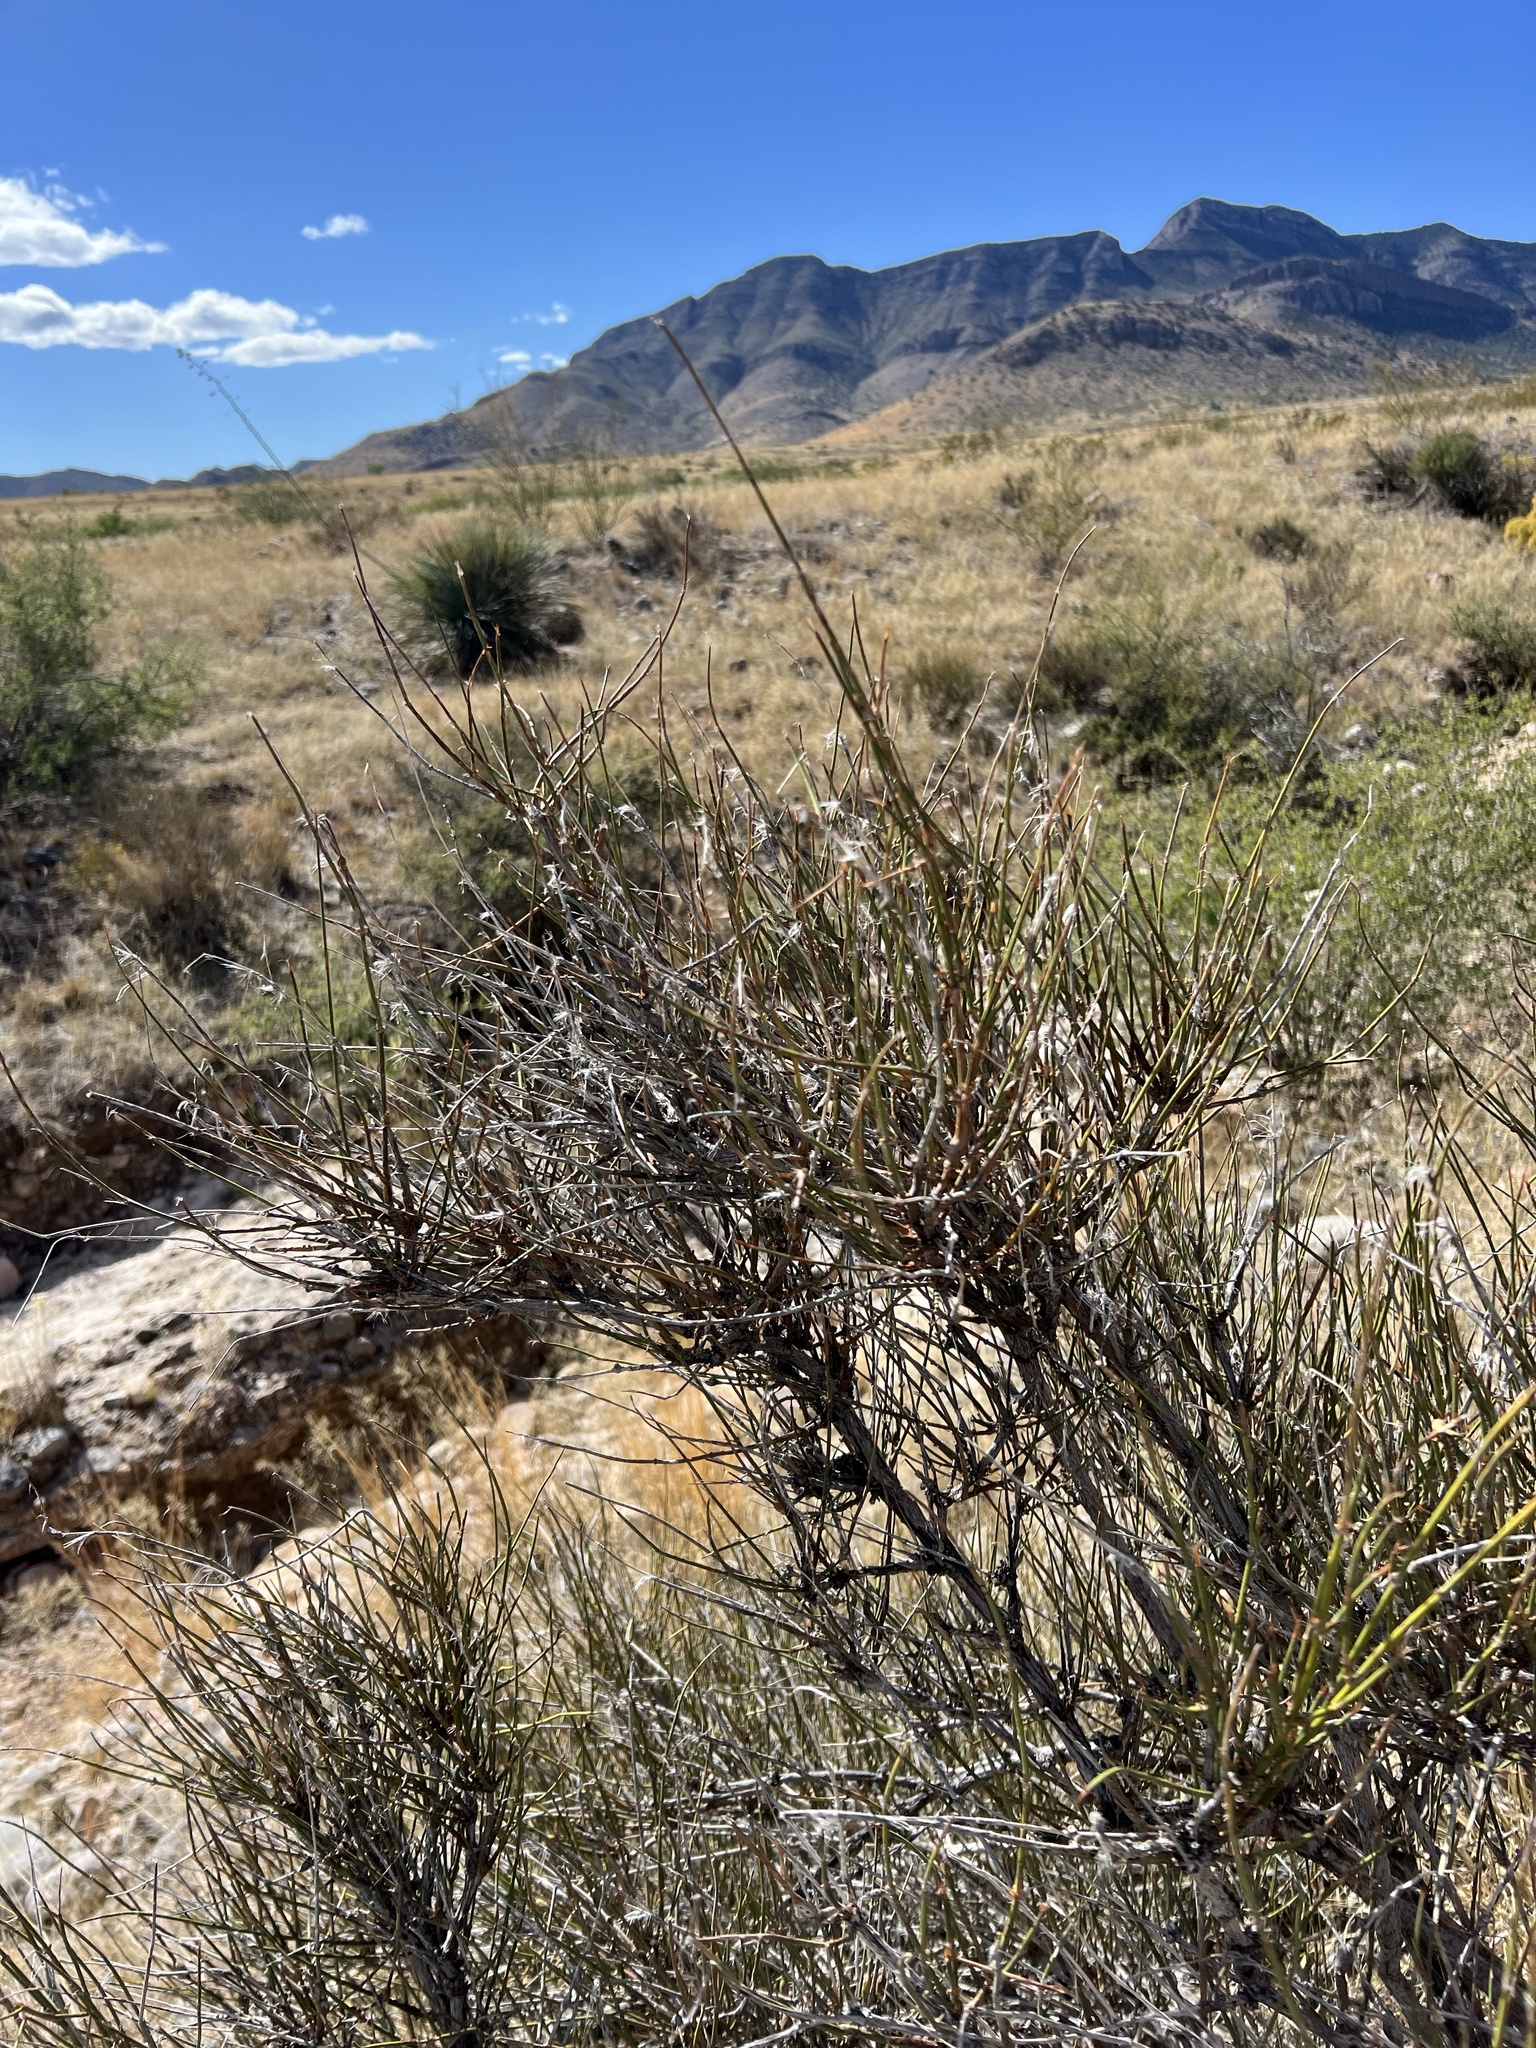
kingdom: Plantae
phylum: Tracheophyta
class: Gnetopsida
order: Ephedrales
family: Ephedraceae
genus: Ephedra
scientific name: Ephedra trifurca
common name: Mexican-tea
